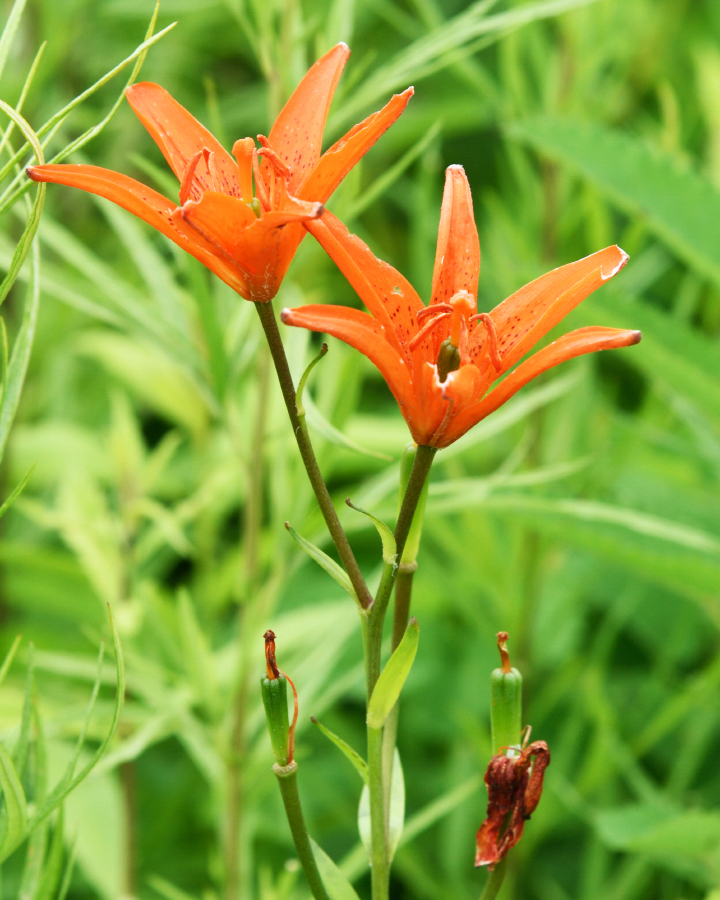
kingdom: Plantae
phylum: Tracheophyta
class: Liliopsida
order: Liliales
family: Liliaceae
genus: Lilium
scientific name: Lilium concolor
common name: Morning-star lily
